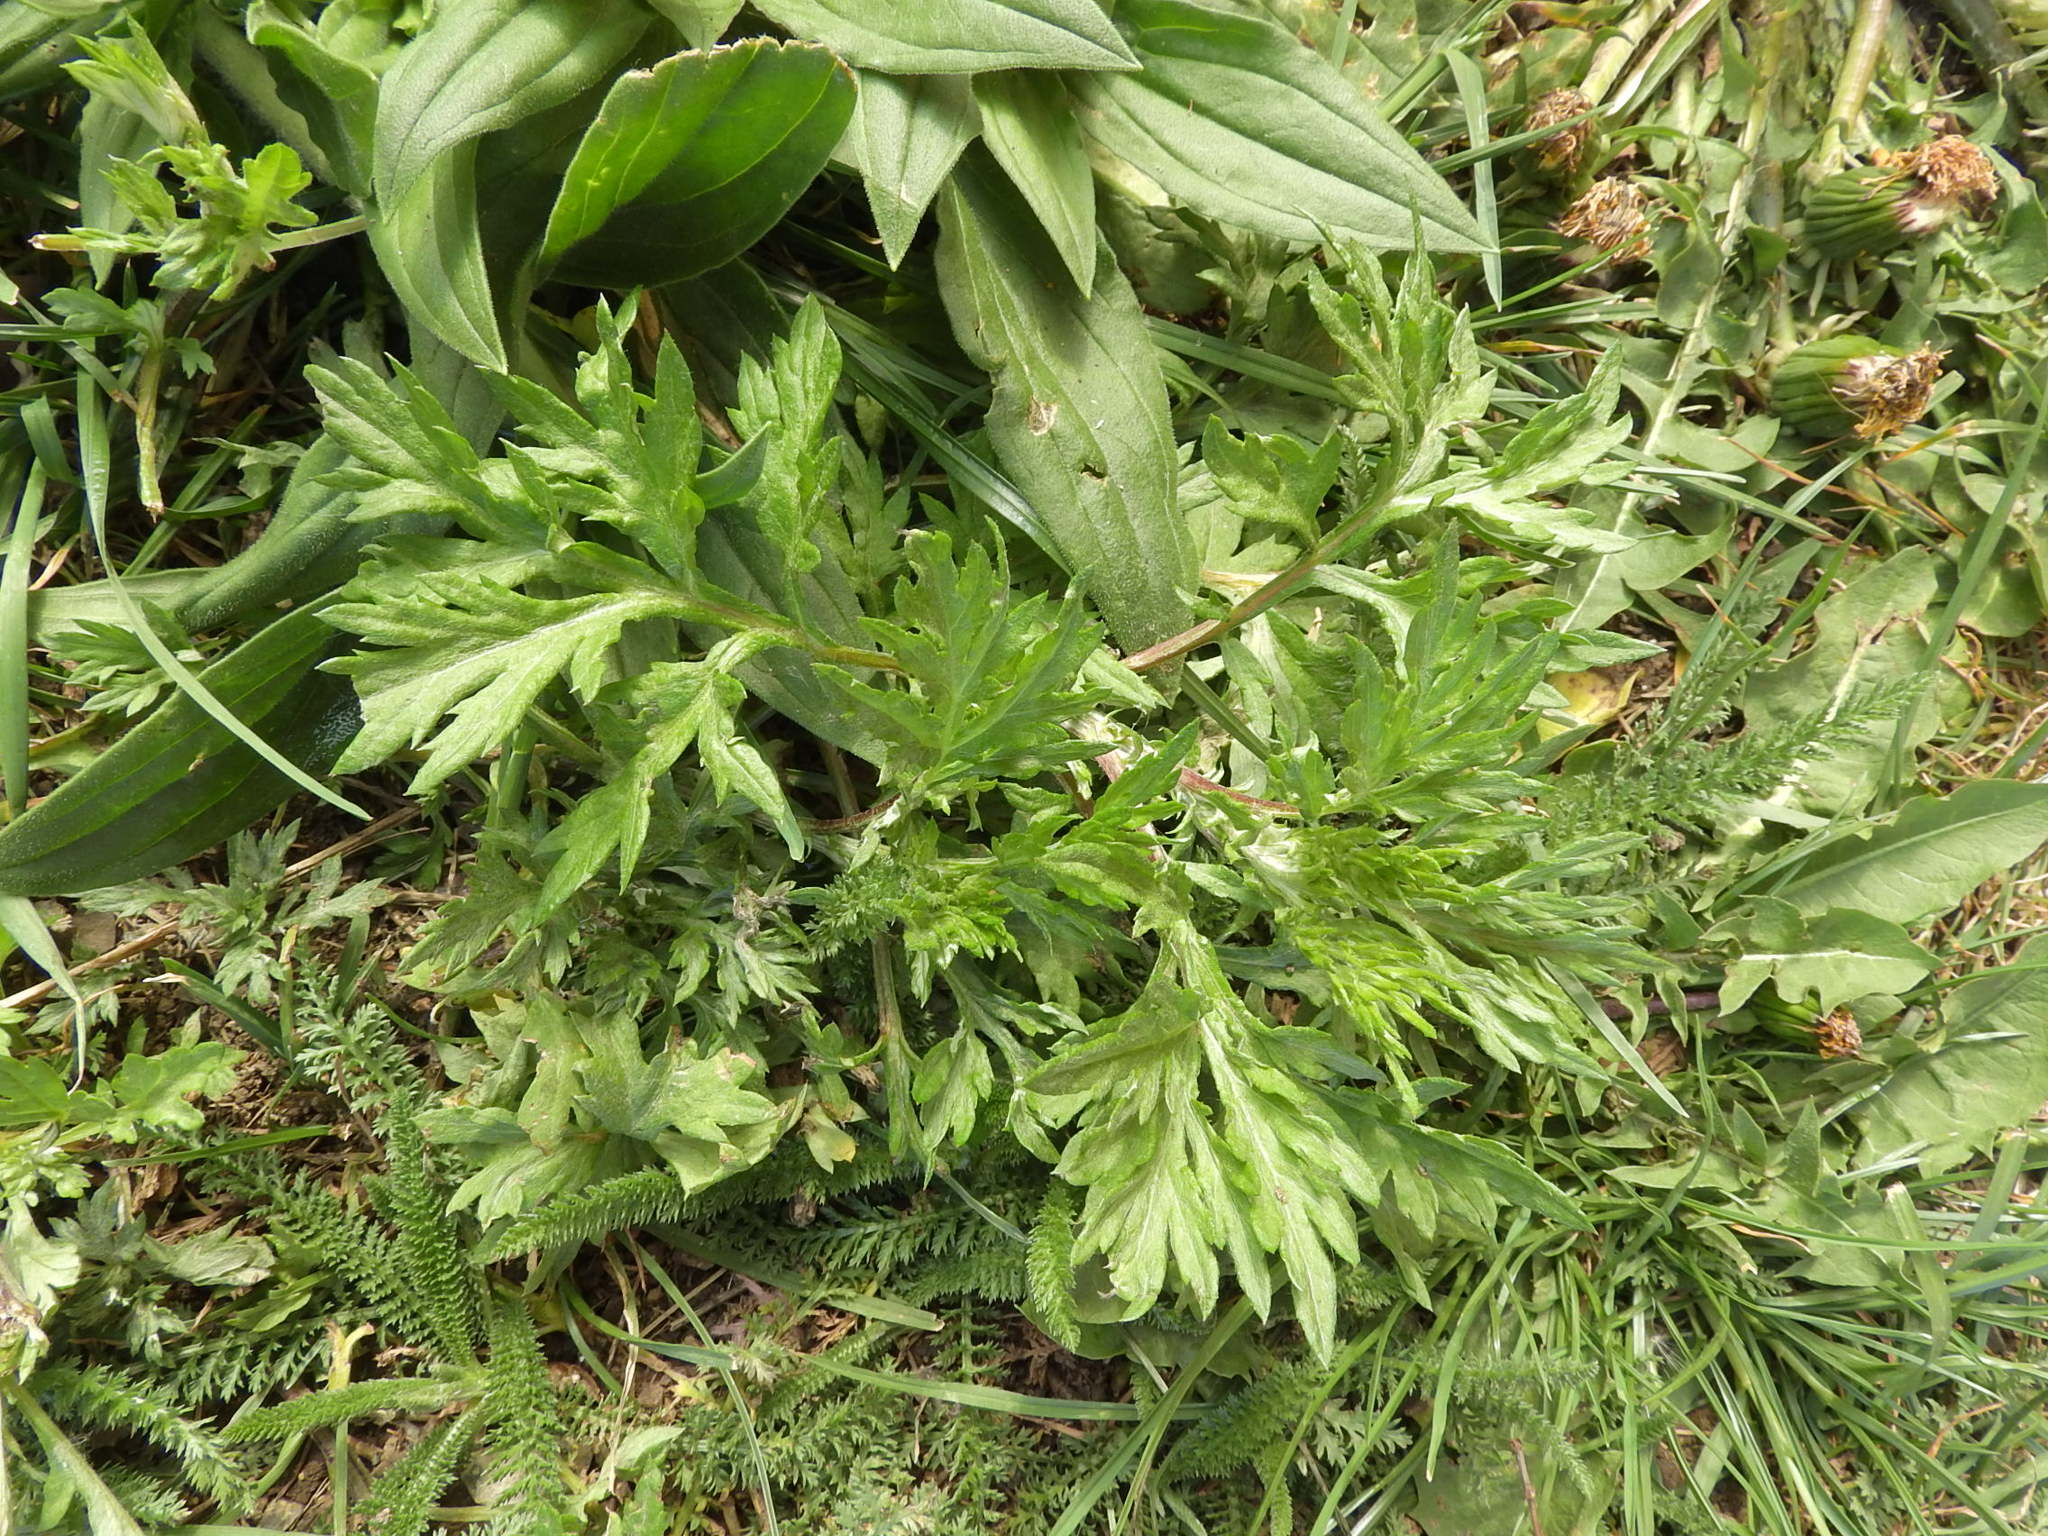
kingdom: Plantae
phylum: Tracheophyta
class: Magnoliopsida
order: Asterales
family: Asteraceae
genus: Artemisia
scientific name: Artemisia vulgaris
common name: Mugwort
